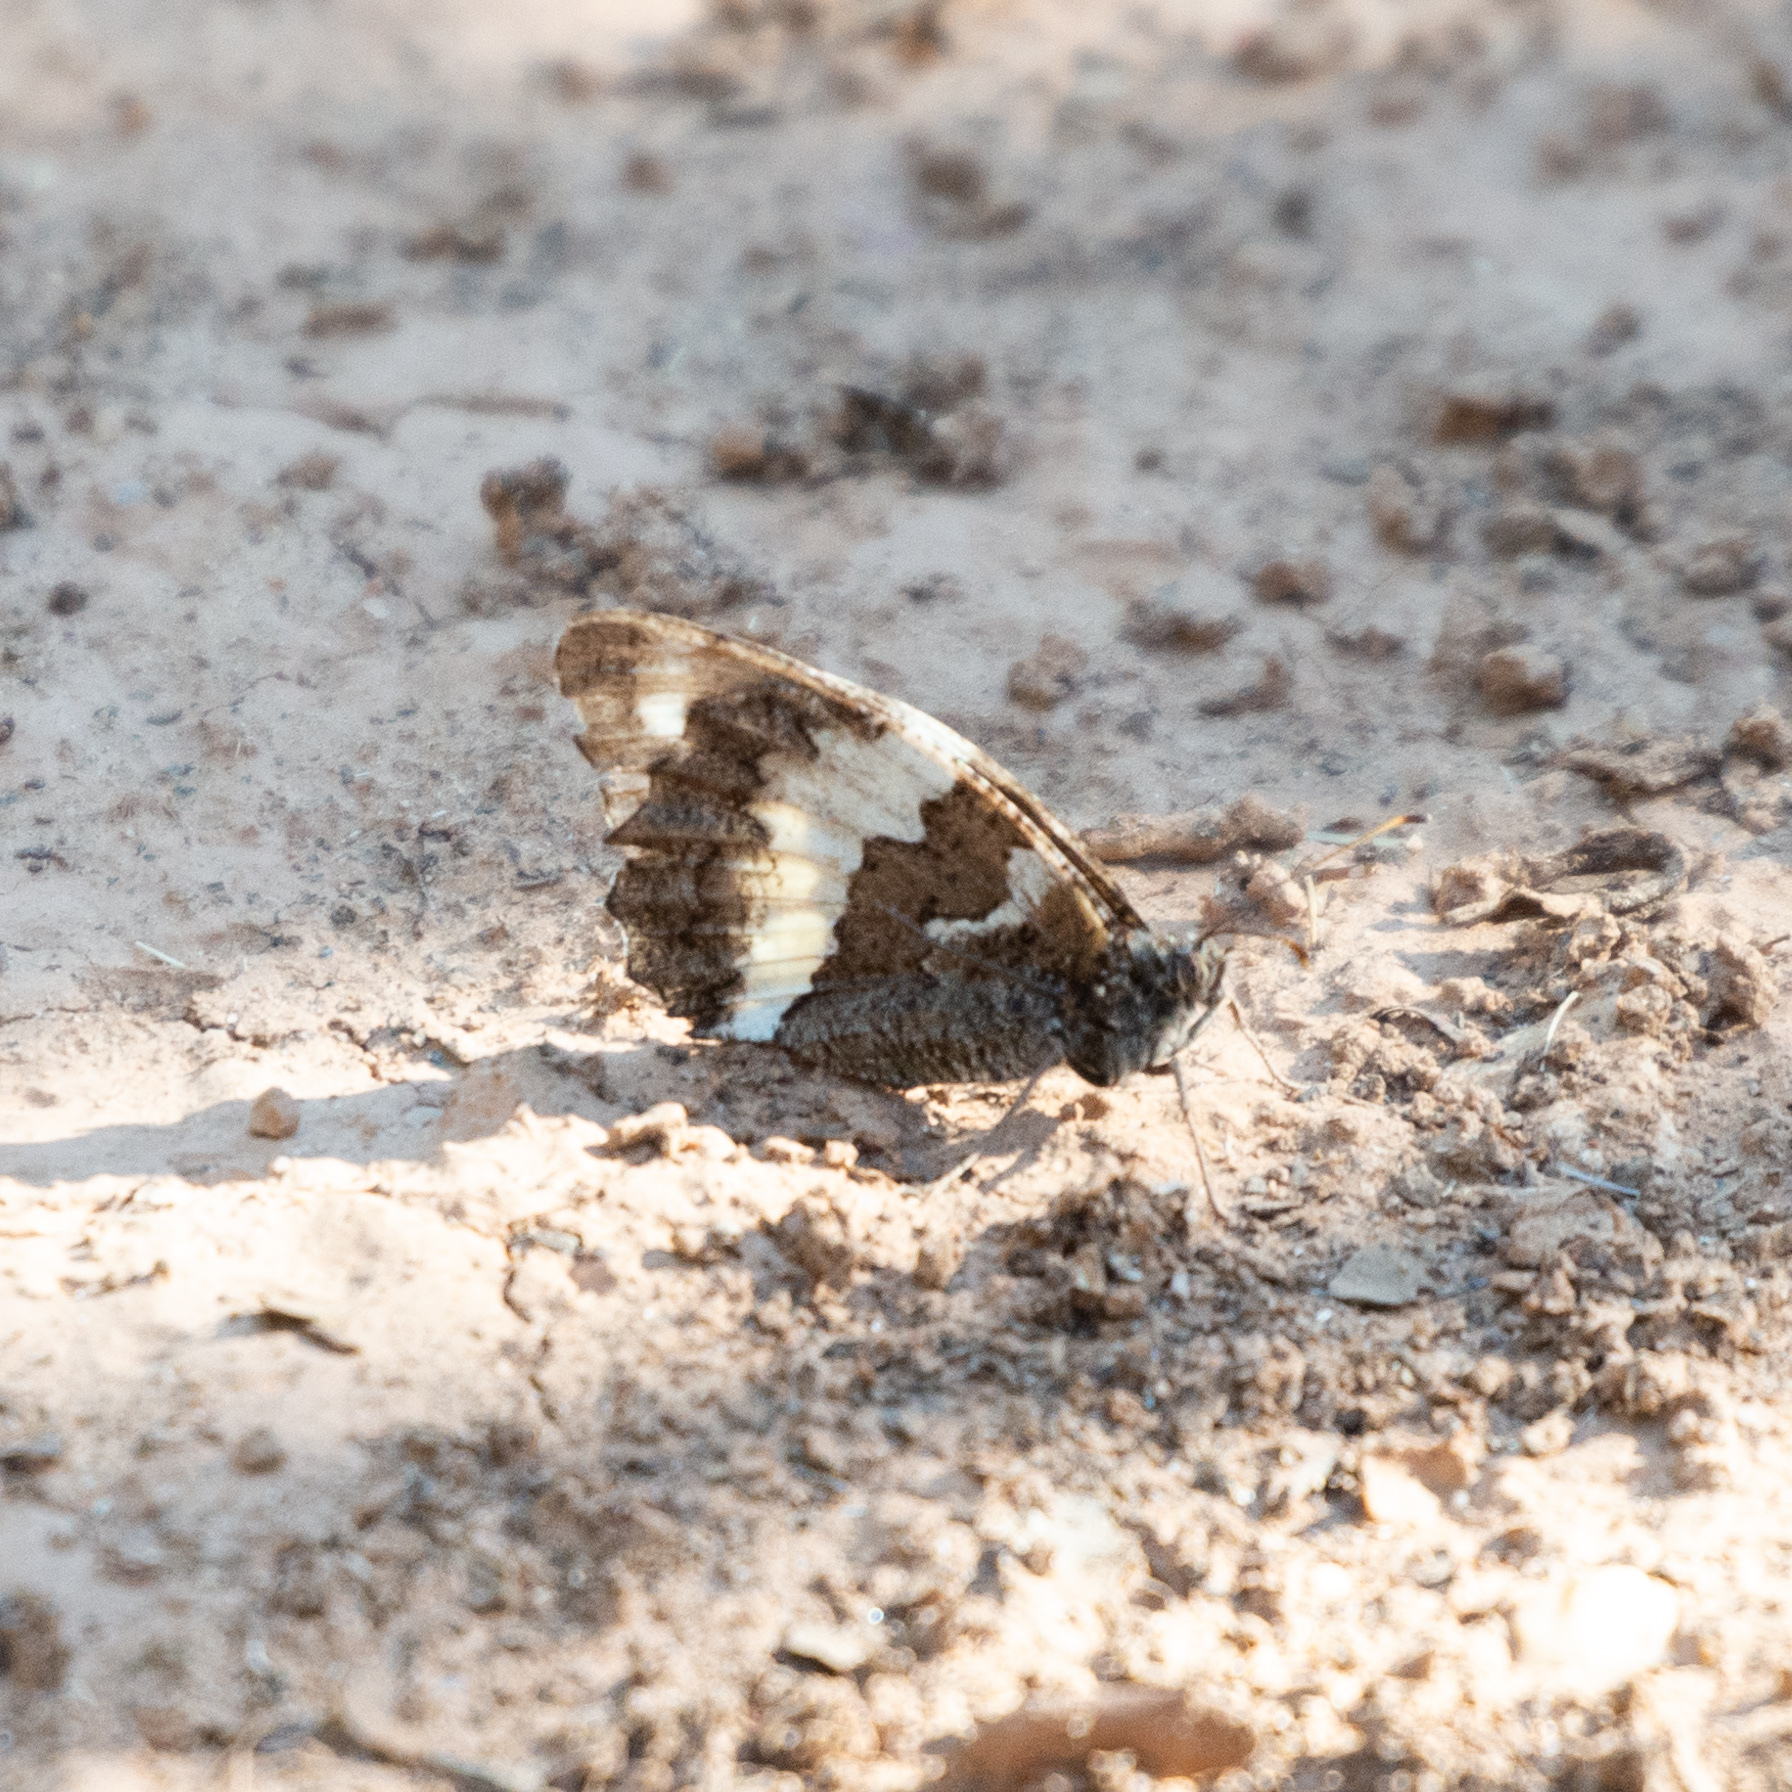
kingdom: Animalia
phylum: Arthropoda
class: Insecta
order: Lepidoptera
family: Lycaenidae
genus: Loweia
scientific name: Loweia tityrus
